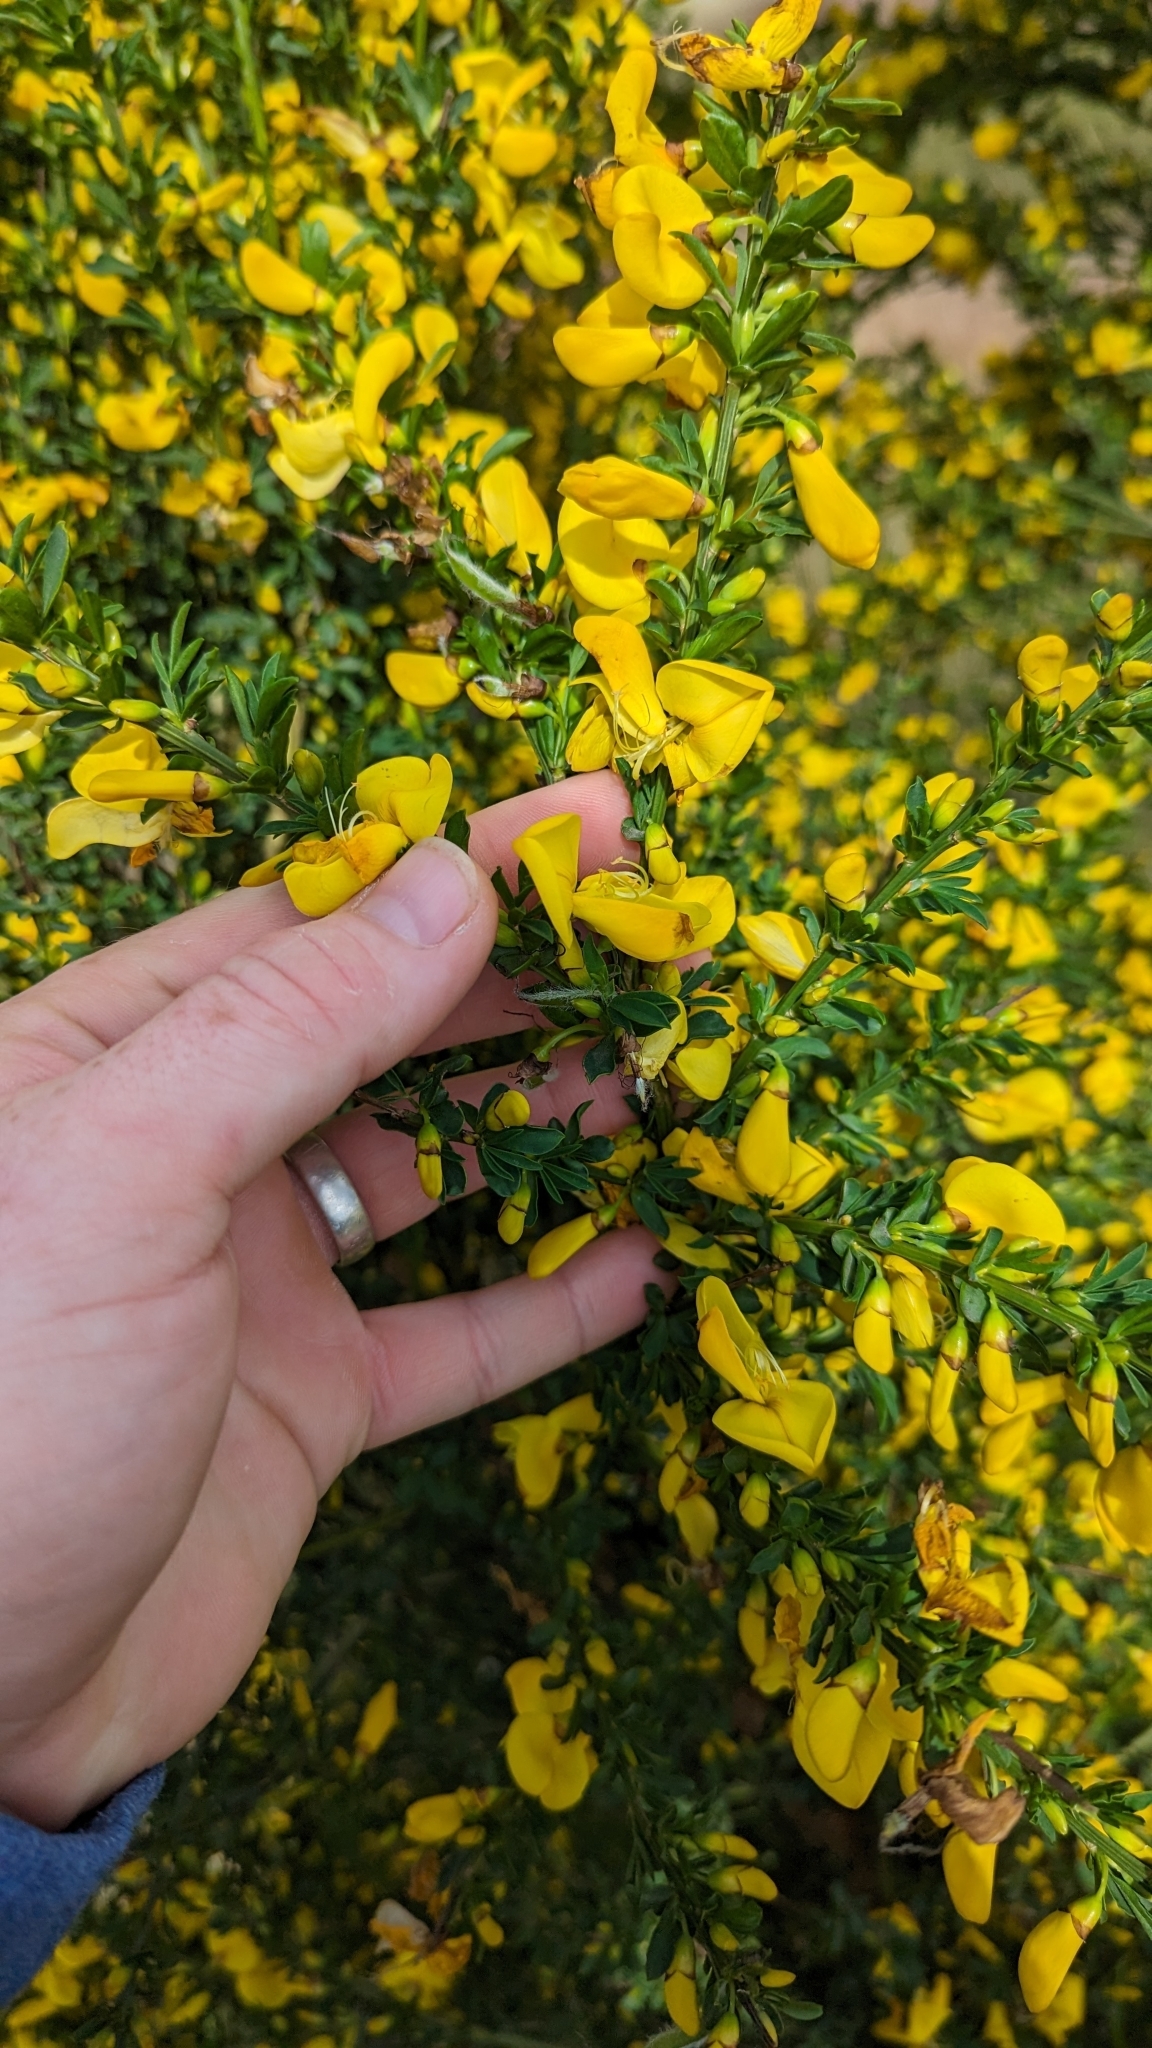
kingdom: Plantae
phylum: Tracheophyta
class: Magnoliopsida
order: Fabales
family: Fabaceae
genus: Cytisus
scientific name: Cytisus scoparius
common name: Scotch broom
